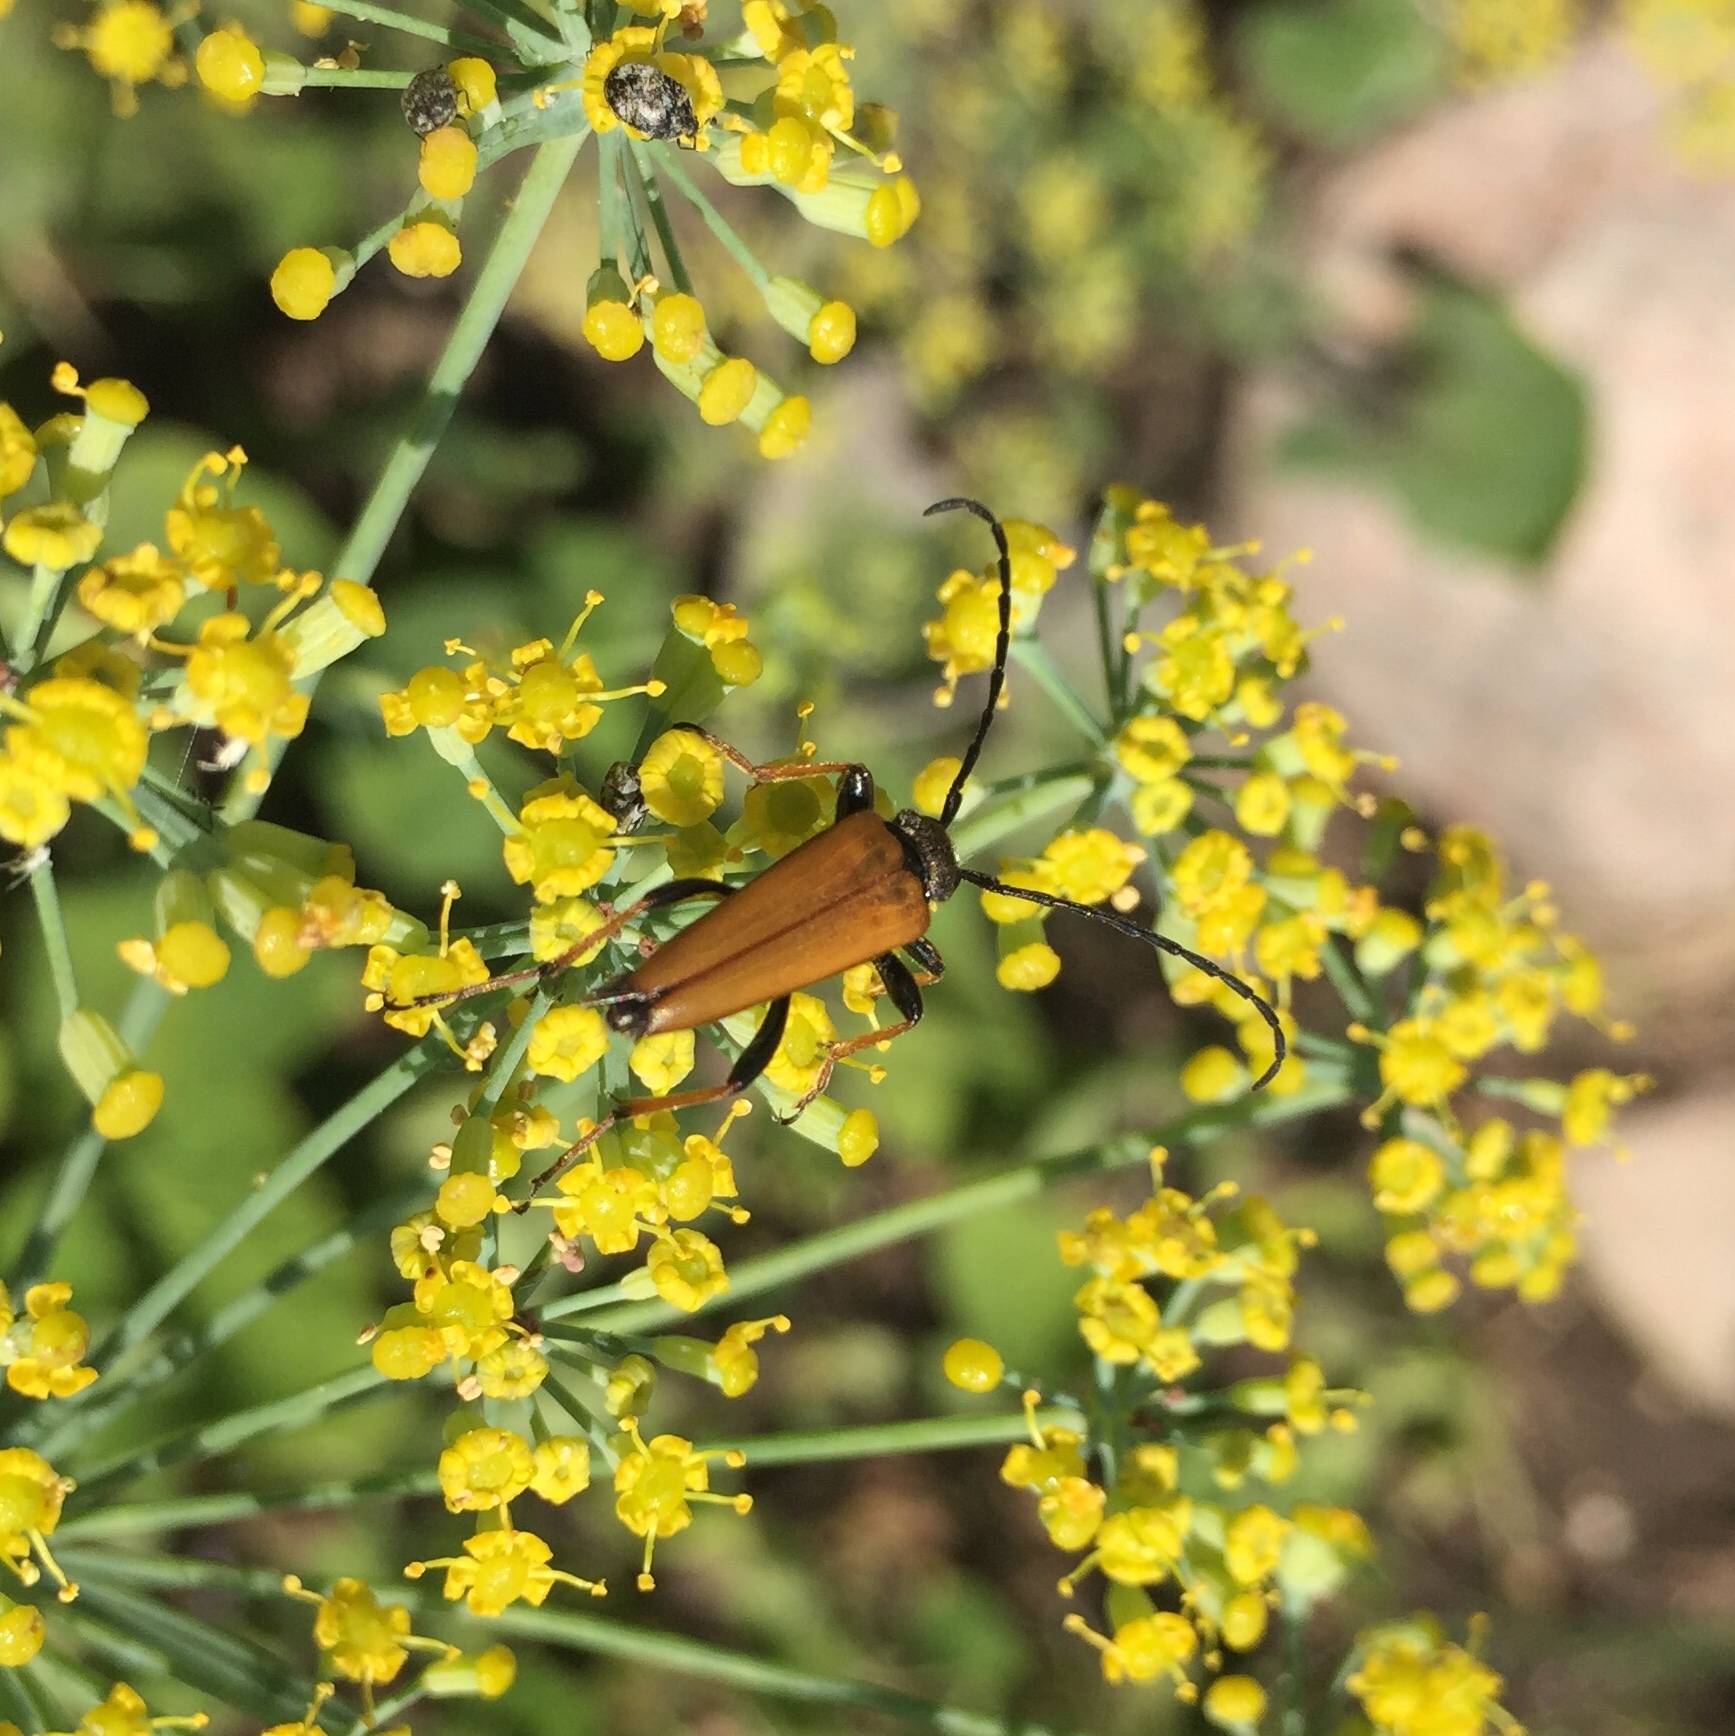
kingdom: Animalia
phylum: Arthropoda
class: Insecta
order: Coleoptera
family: Cerambycidae
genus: Stictoleptura
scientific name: Stictoleptura rubra
